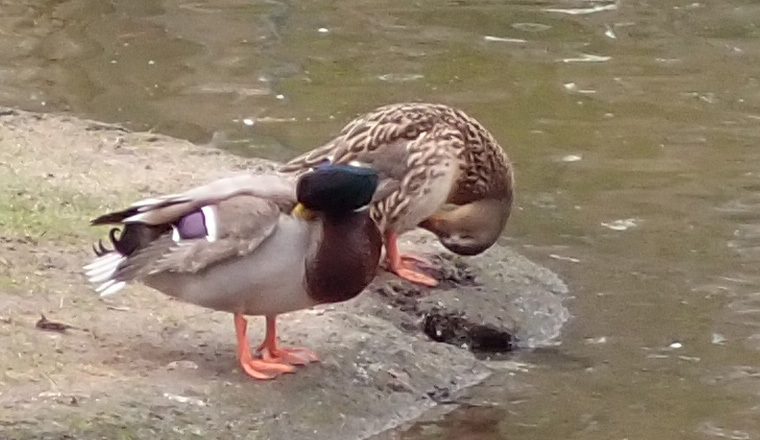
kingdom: Animalia
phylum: Chordata
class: Aves
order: Anseriformes
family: Anatidae
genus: Anas
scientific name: Anas platyrhynchos
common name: Mallard
